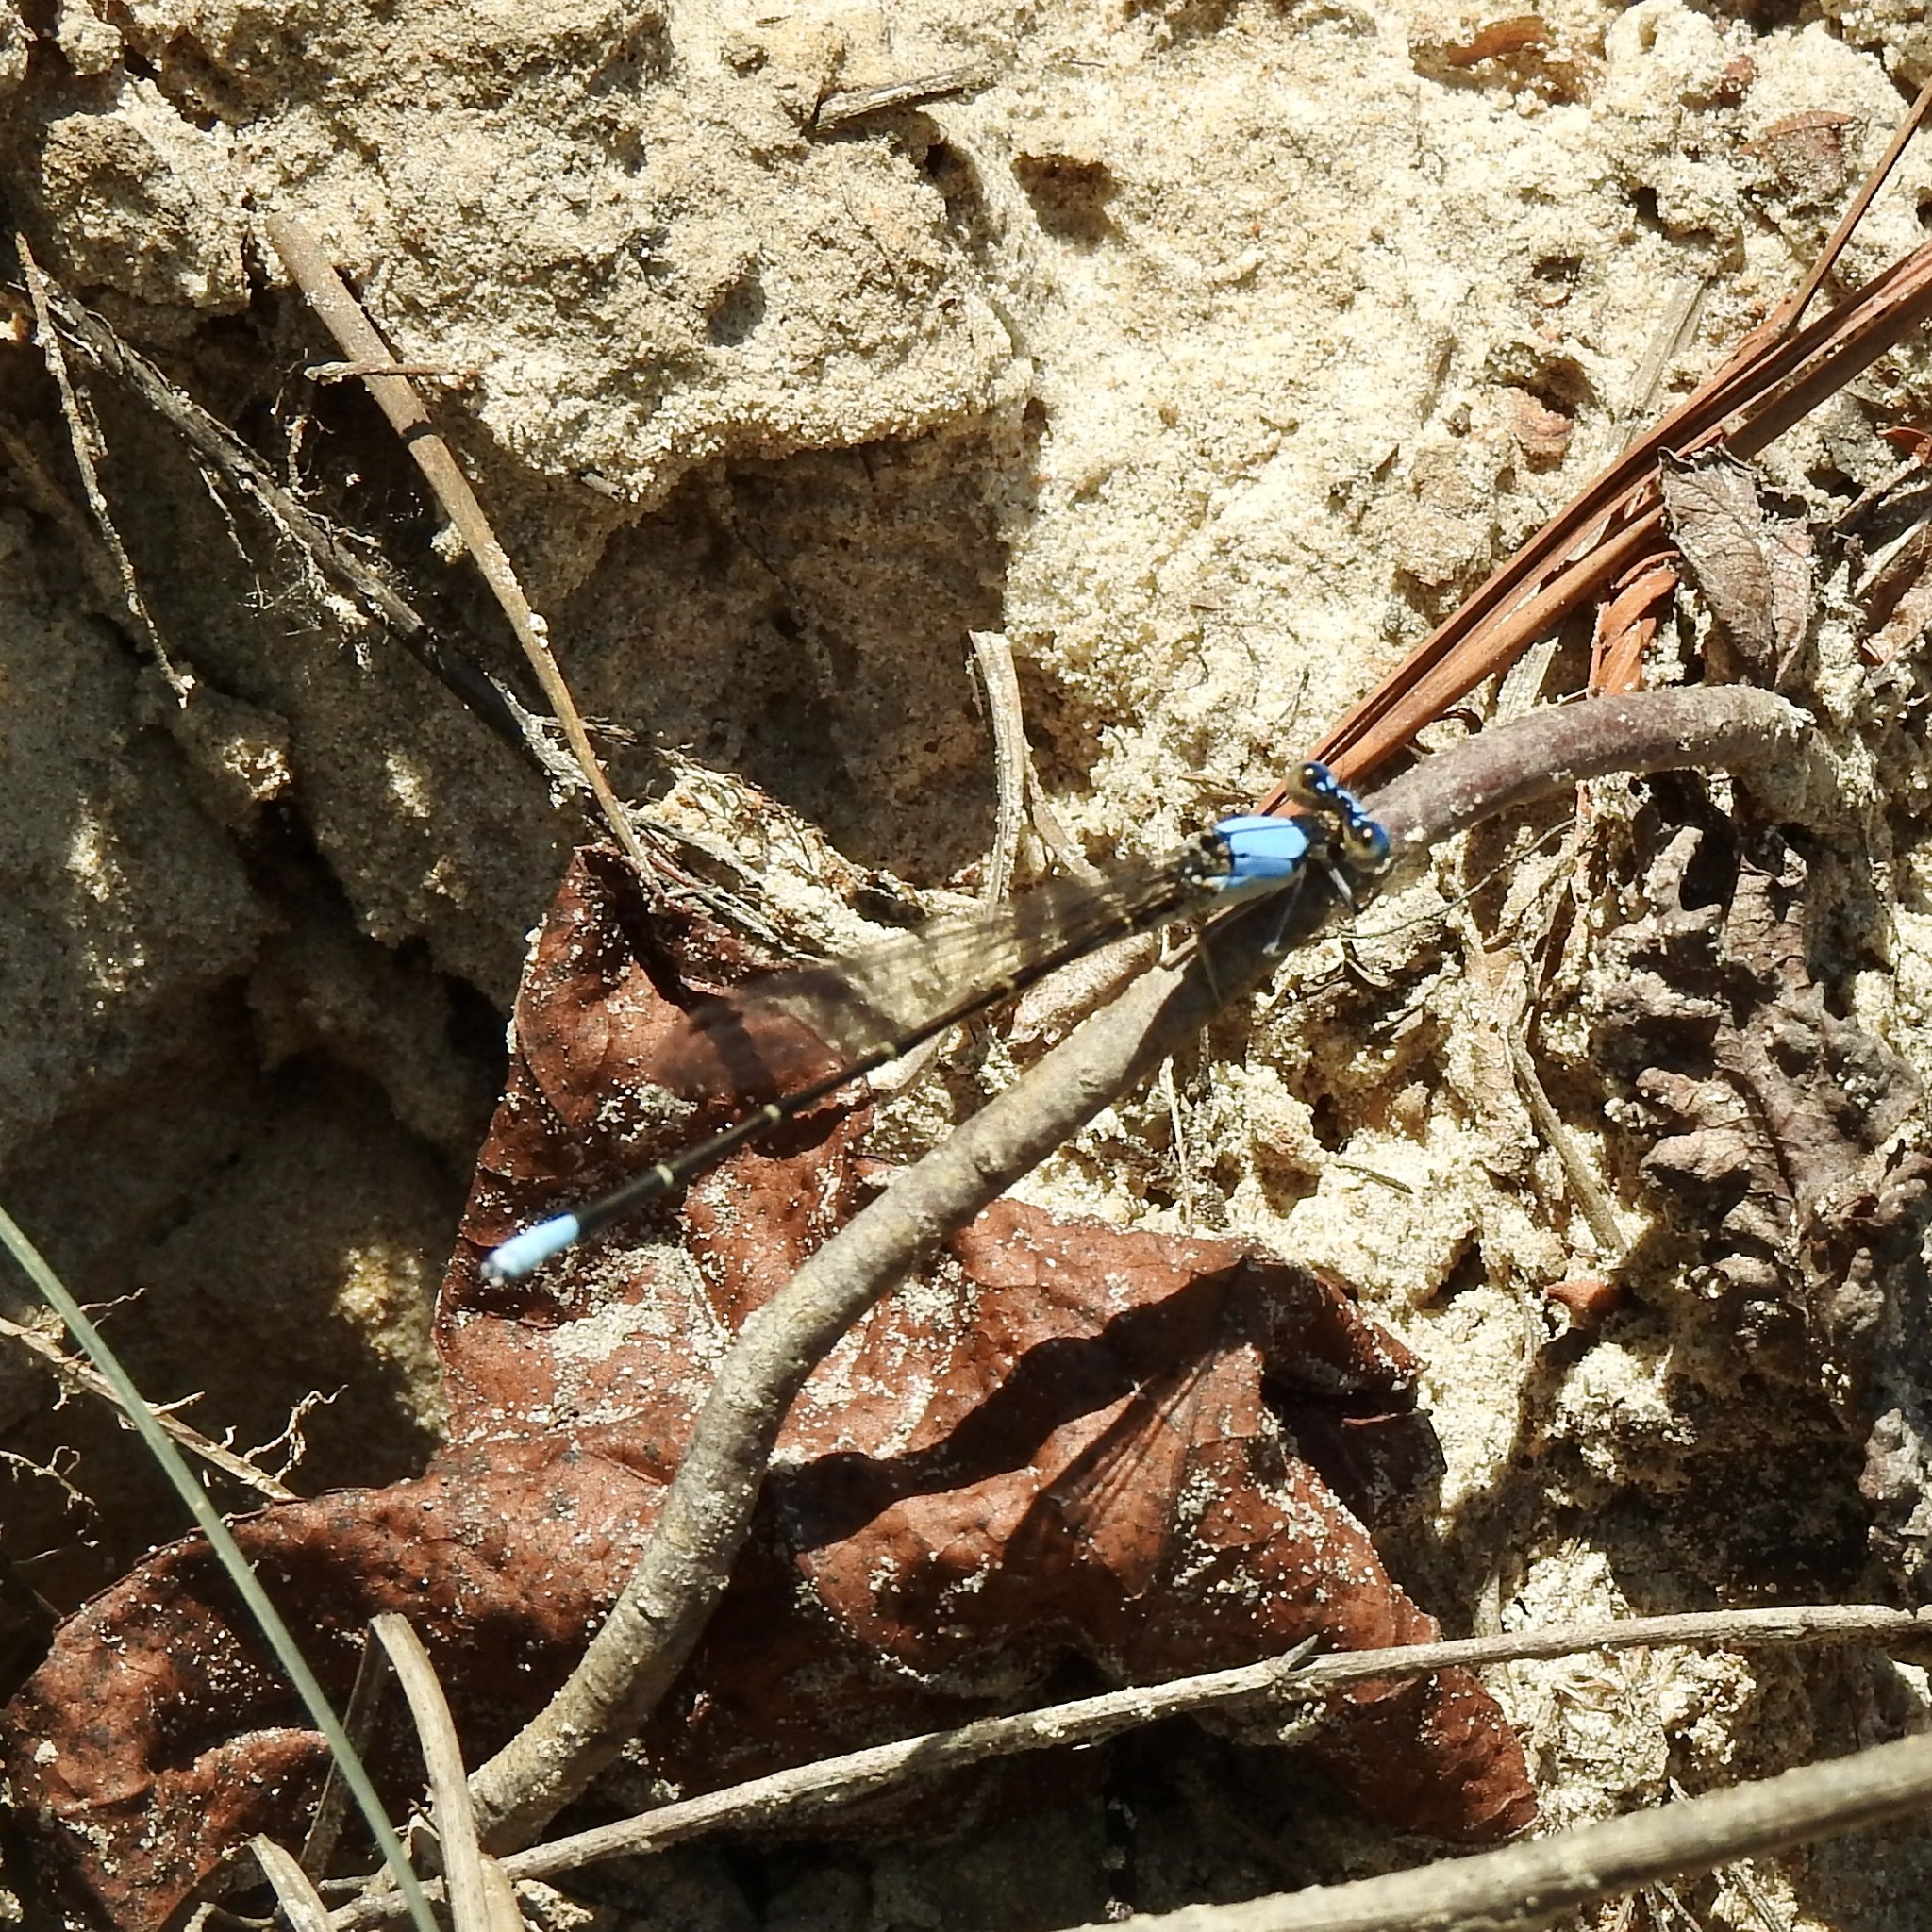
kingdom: Animalia
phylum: Arthropoda
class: Insecta
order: Odonata
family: Coenagrionidae
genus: Argia
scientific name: Argia apicalis
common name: Blue-fronted dancer
